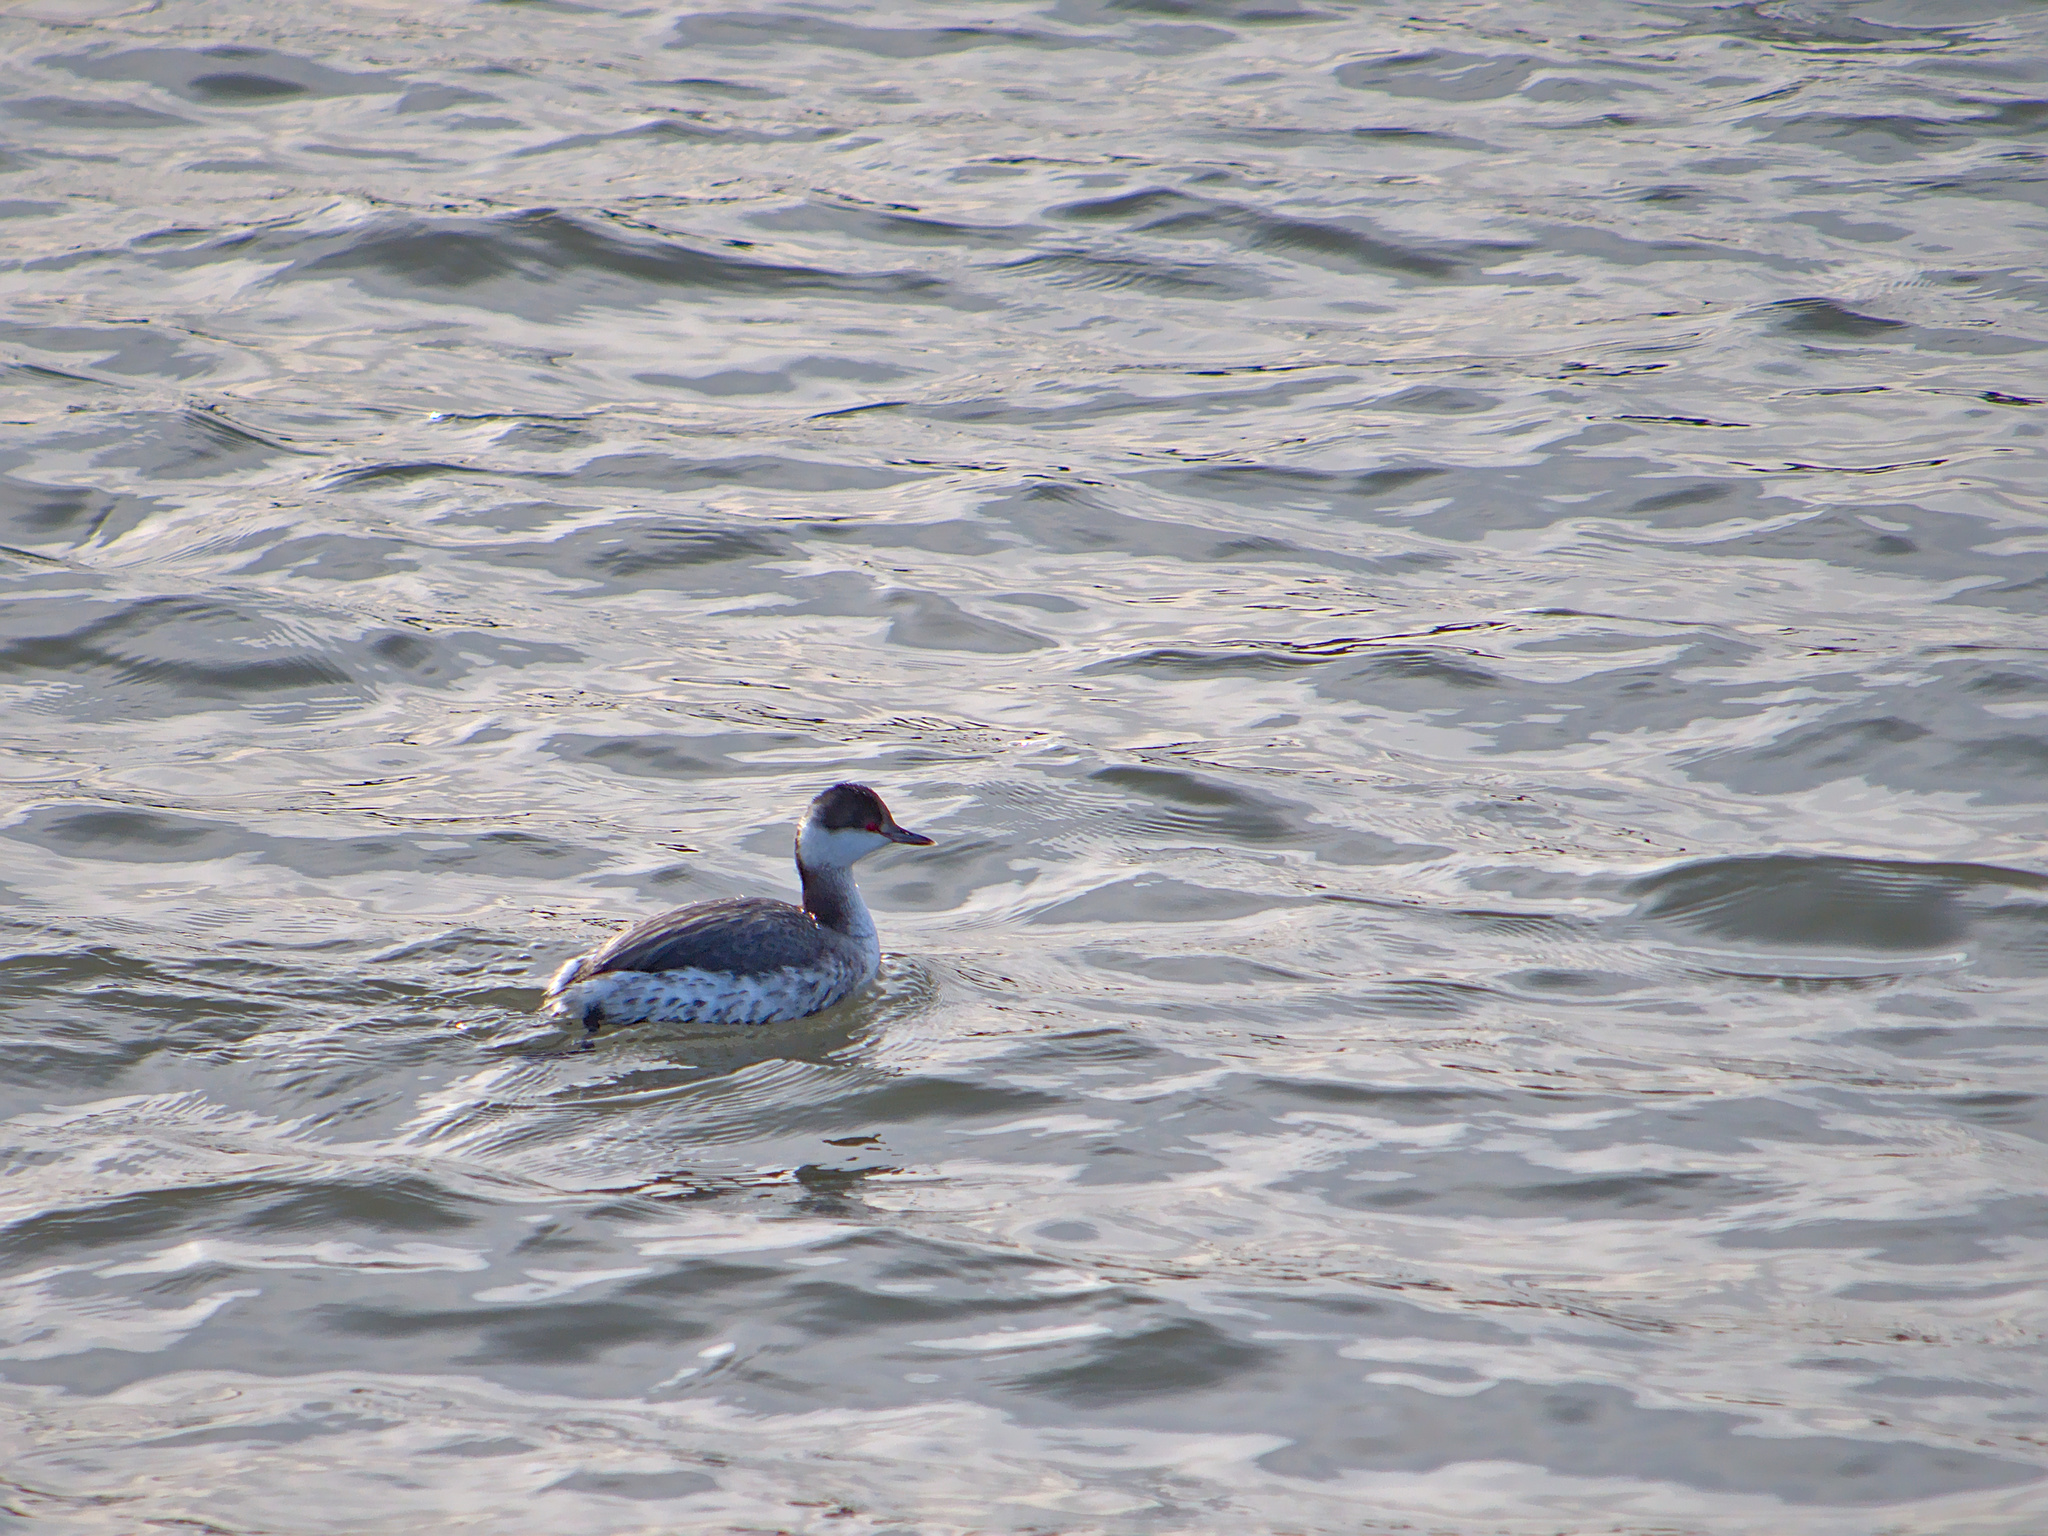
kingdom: Animalia
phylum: Chordata
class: Aves
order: Podicipediformes
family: Podicipedidae
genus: Podiceps
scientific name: Podiceps auritus
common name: Horned grebe
